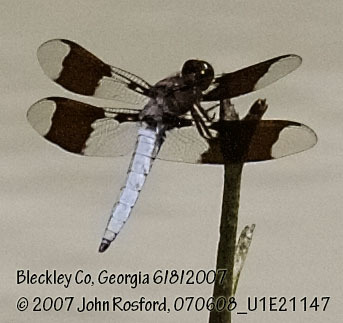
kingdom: Animalia
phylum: Arthropoda
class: Insecta
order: Odonata
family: Libellulidae
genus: Plathemis
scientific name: Plathemis lydia
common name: Common whitetail
